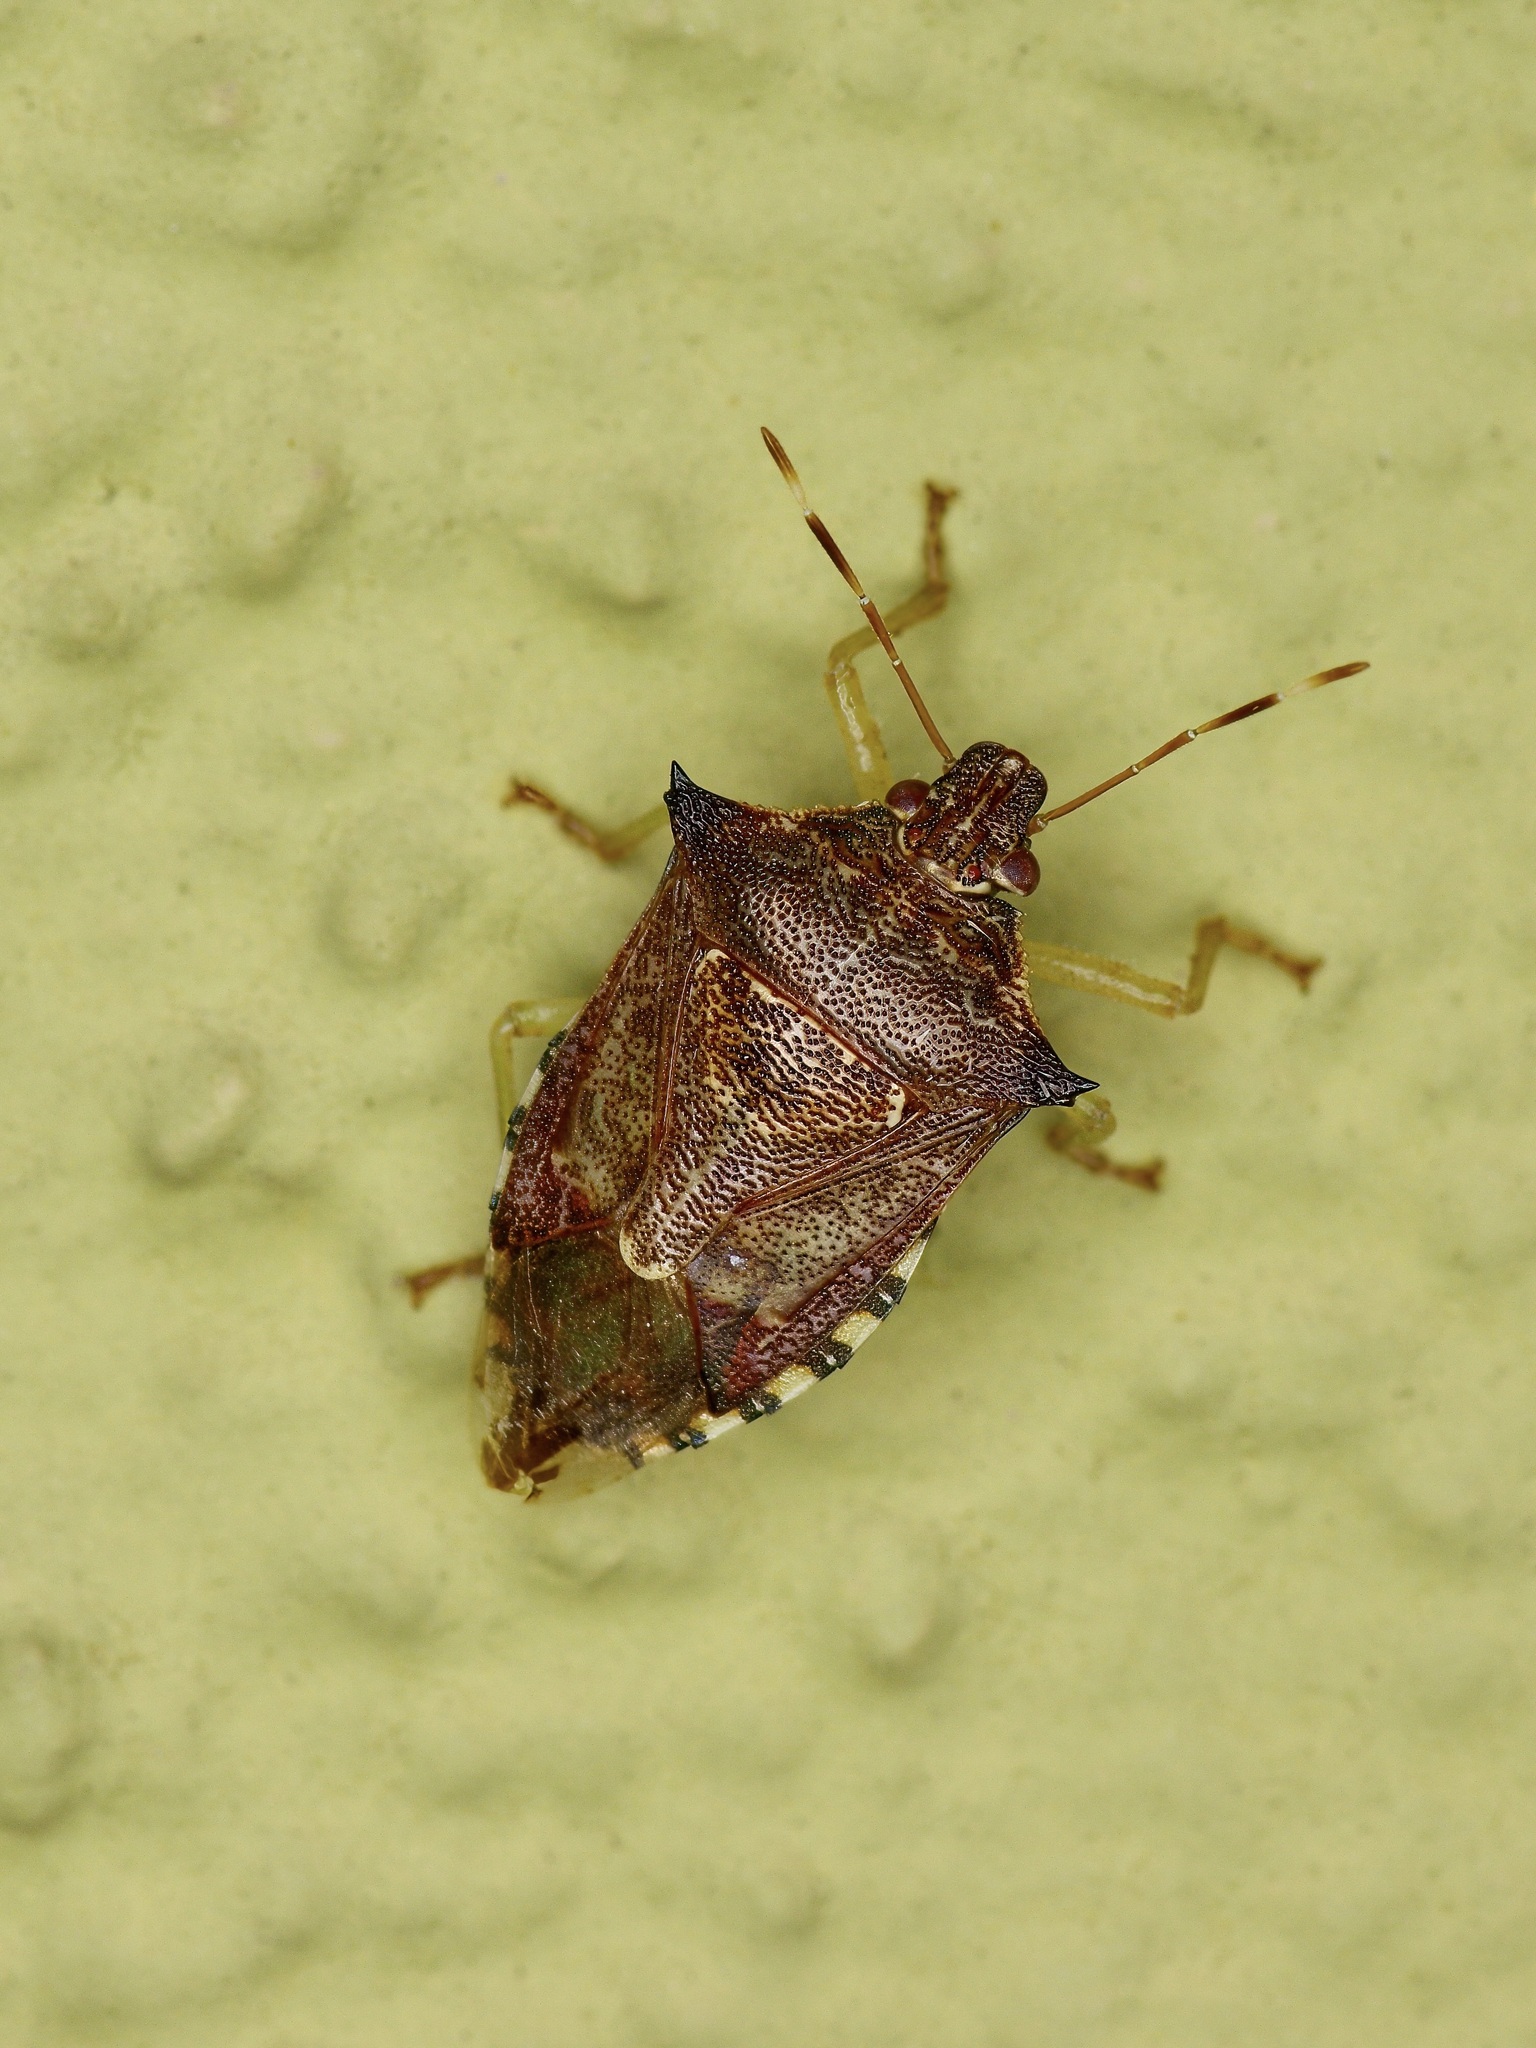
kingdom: Animalia
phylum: Arthropoda
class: Insecta
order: Hemiptera
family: Pentatomidae
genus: Podisus
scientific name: Podisus sagitta
